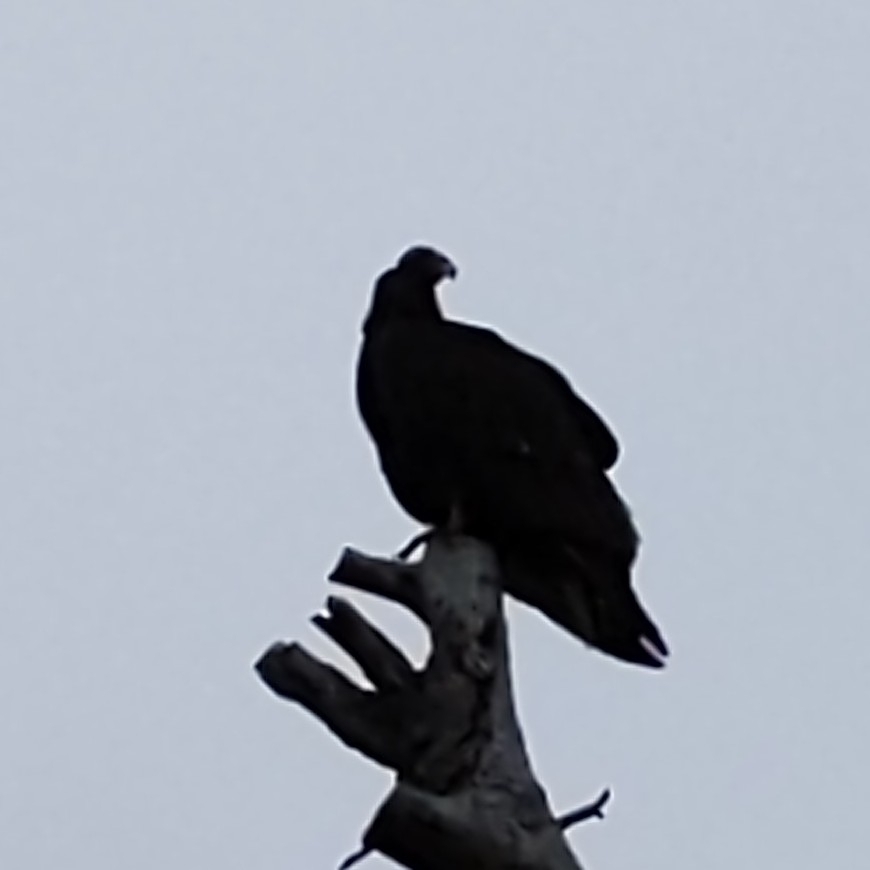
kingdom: Animalia
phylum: Chordata
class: Aves
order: Accipitriformes
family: Cathartidae
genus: Cathartes
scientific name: Cathartes aura
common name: Turkey vulture
